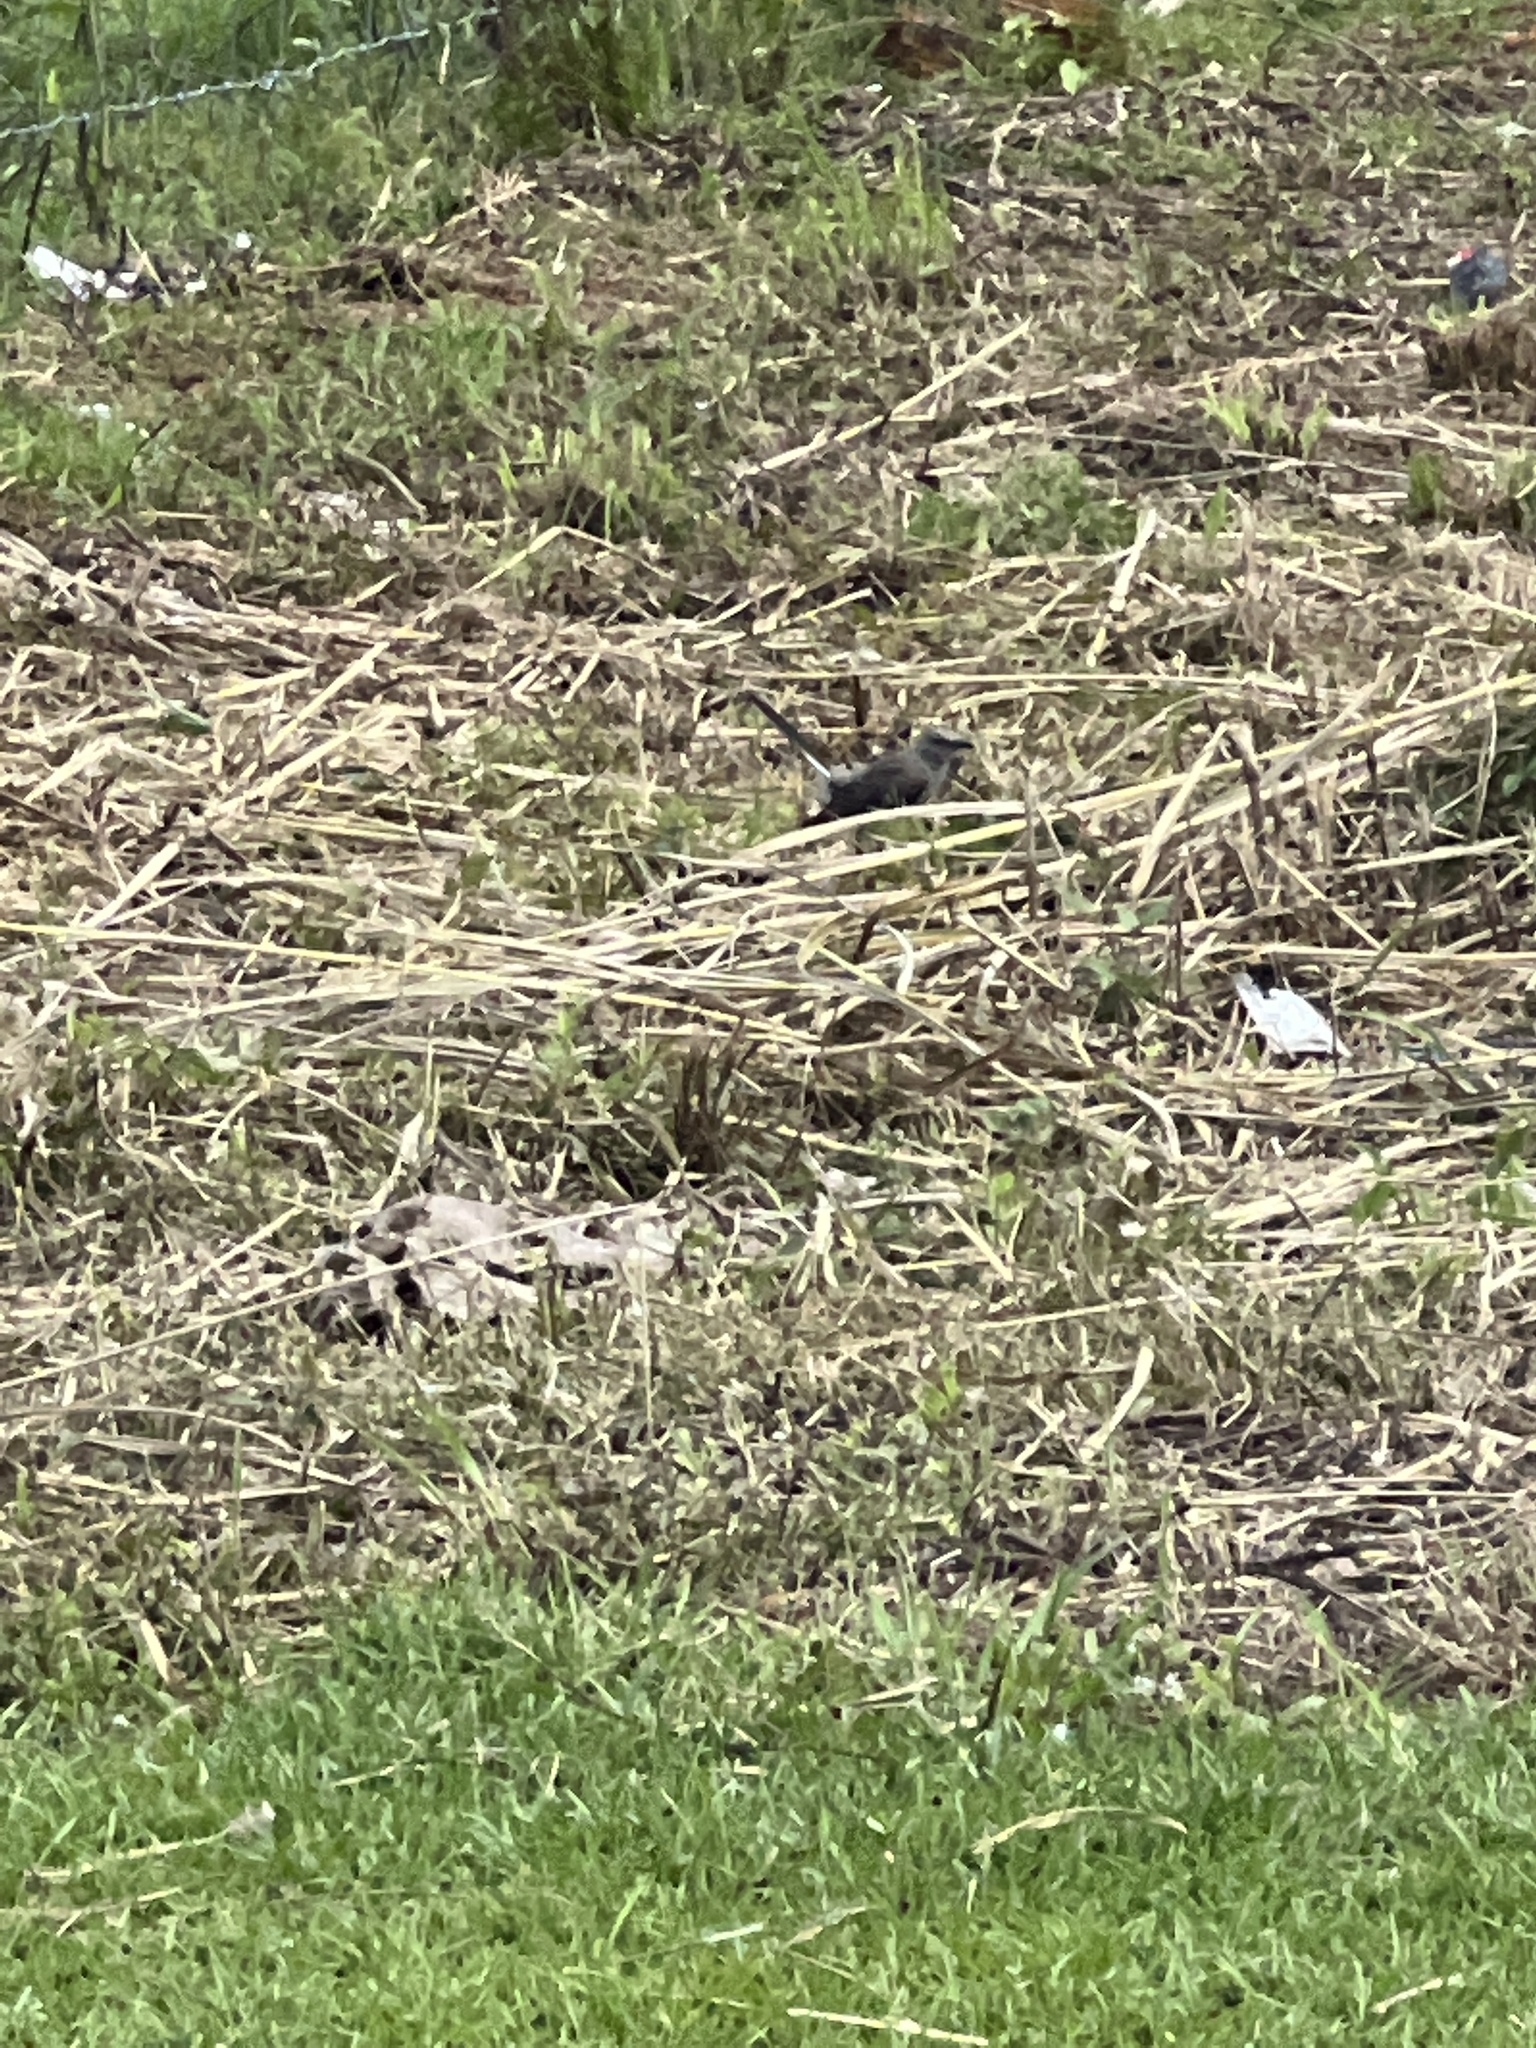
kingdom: Animalia
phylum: Chordata
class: Aves
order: Passeriformes
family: Mimidae
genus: Mimus
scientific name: Mimus polyglottos
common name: Northern mockingbird
